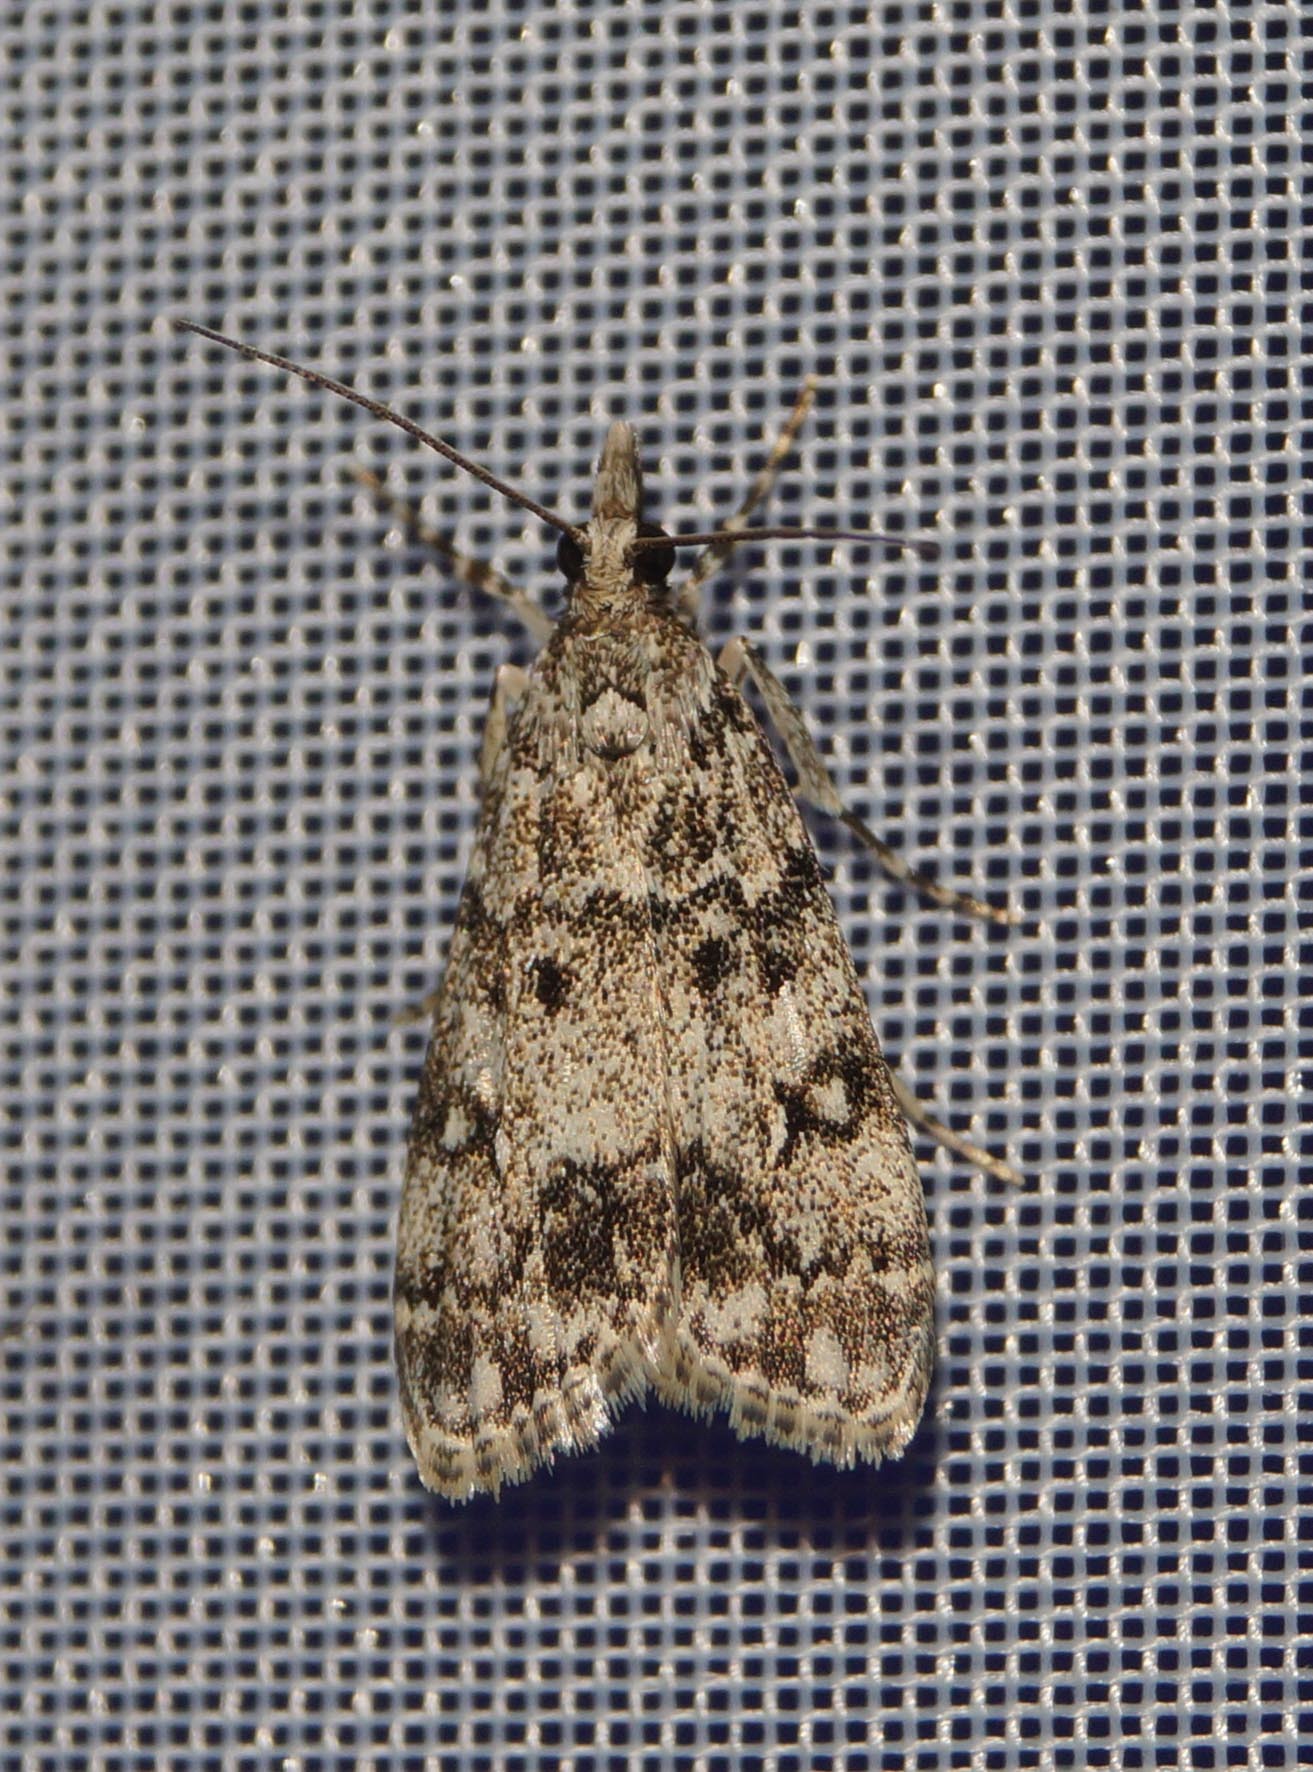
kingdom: Animalia
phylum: Arthropoda
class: Insecta
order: Lepidoptera
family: Crambidae
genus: Eudonia
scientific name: Eudonia lacustrata
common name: Little grey
